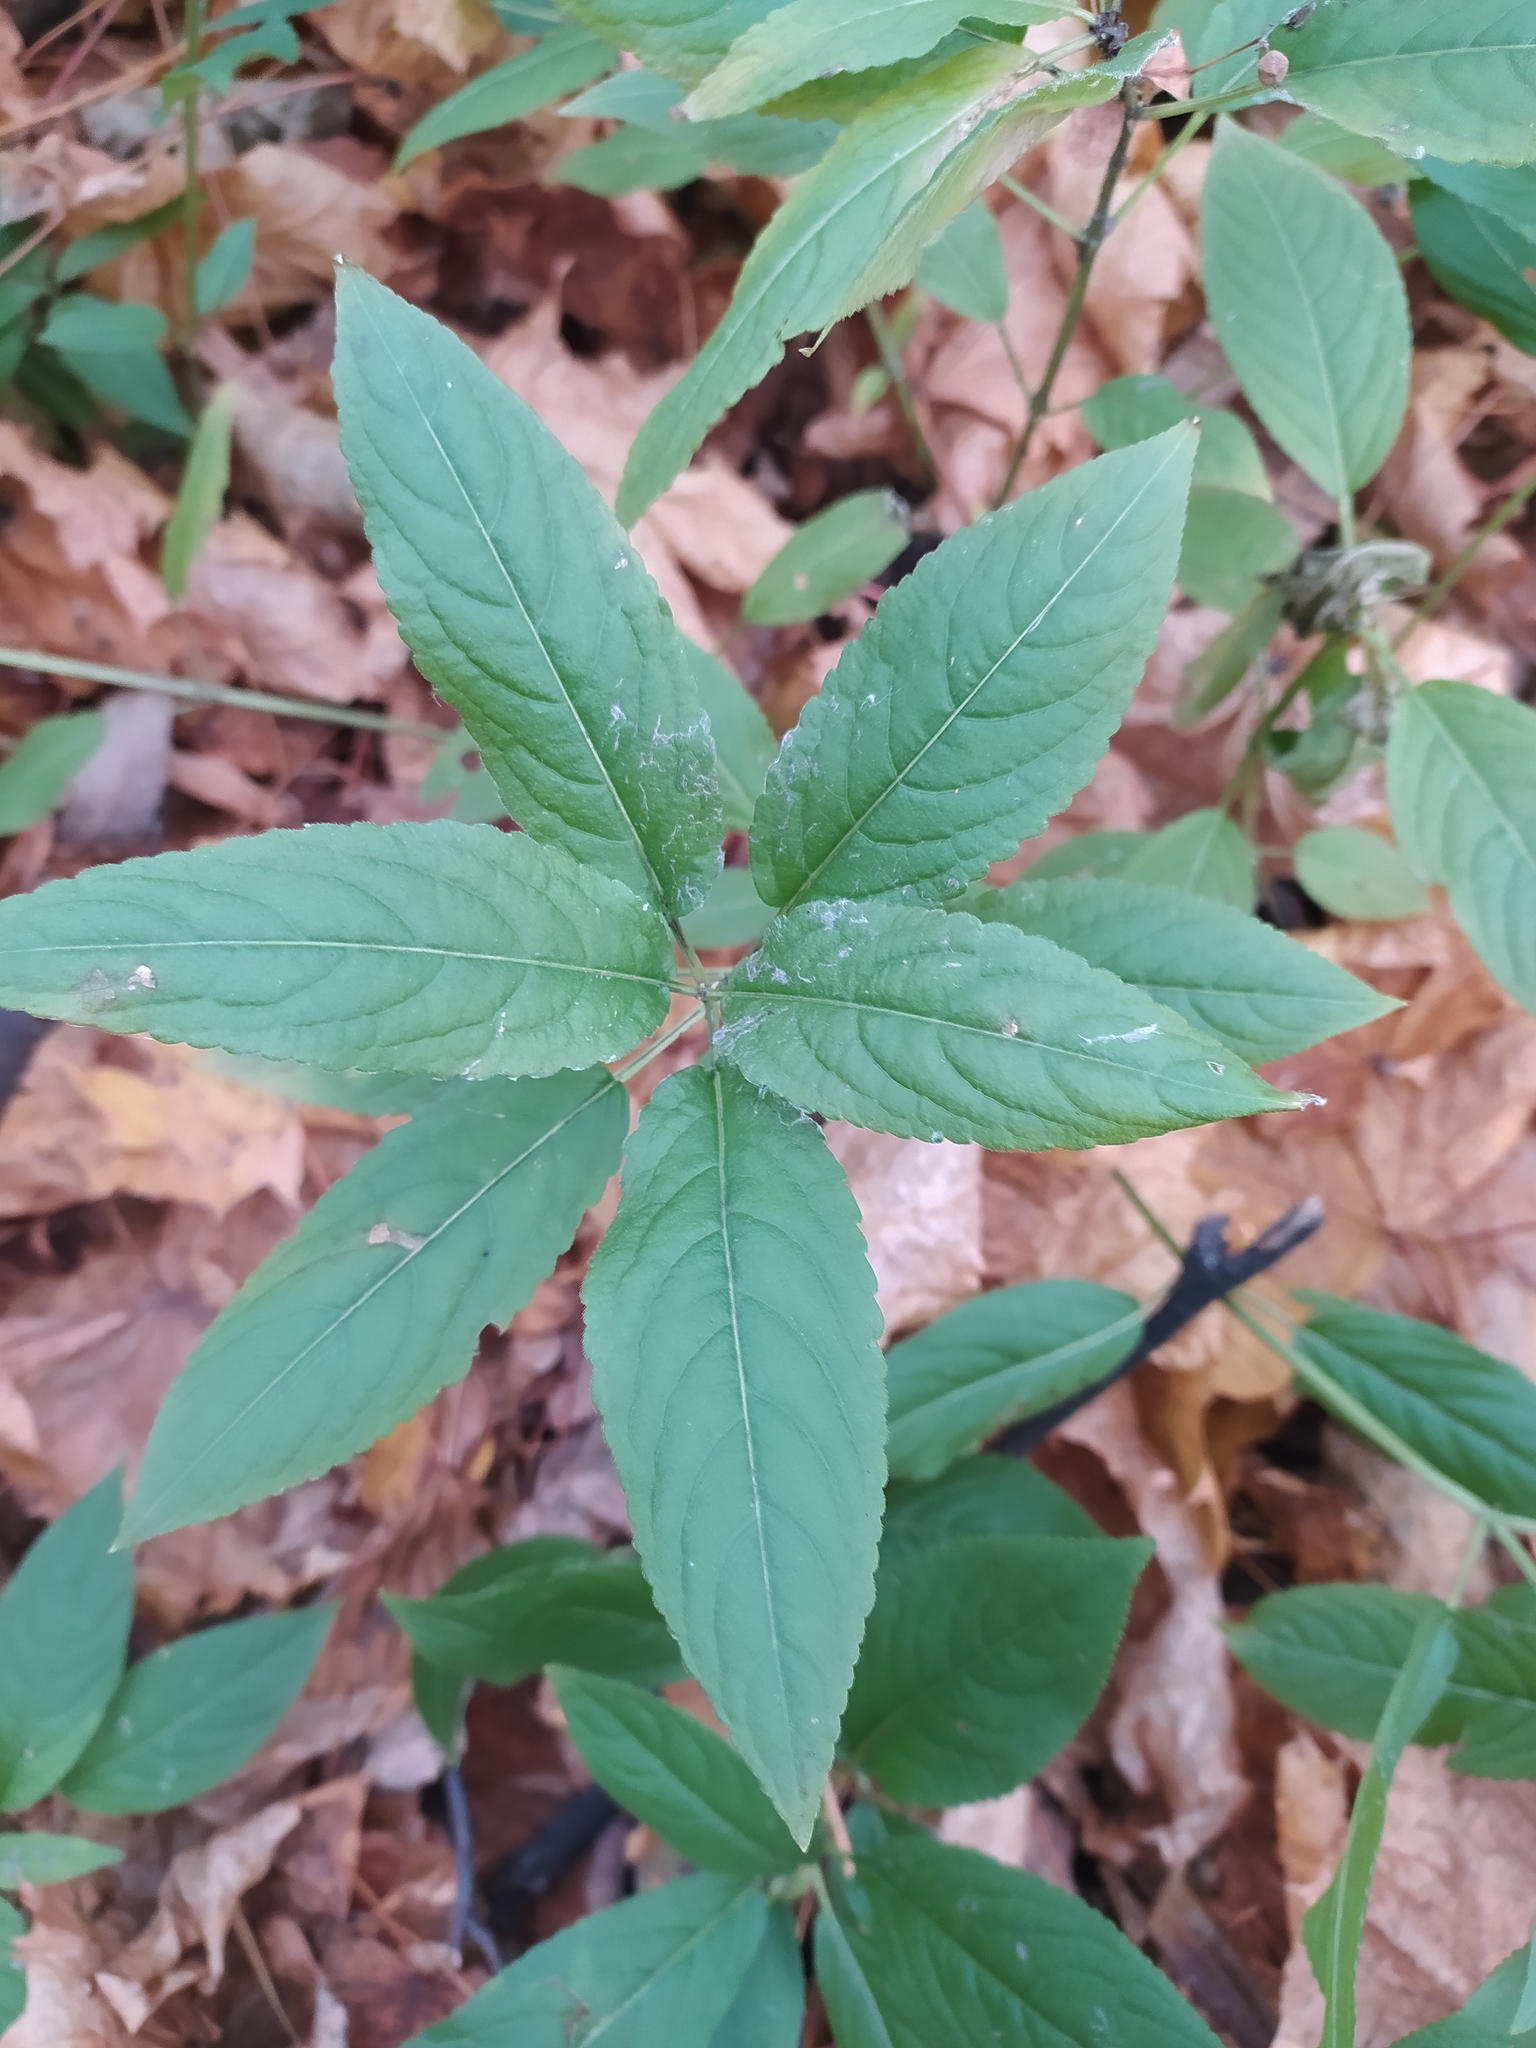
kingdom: Plantae
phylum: Tracheophyta
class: Magnoliopsida
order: Malpighiales
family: Euphorbiaceae
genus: Mercurialis
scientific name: Mercurialis perennis
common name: Dog mercury
